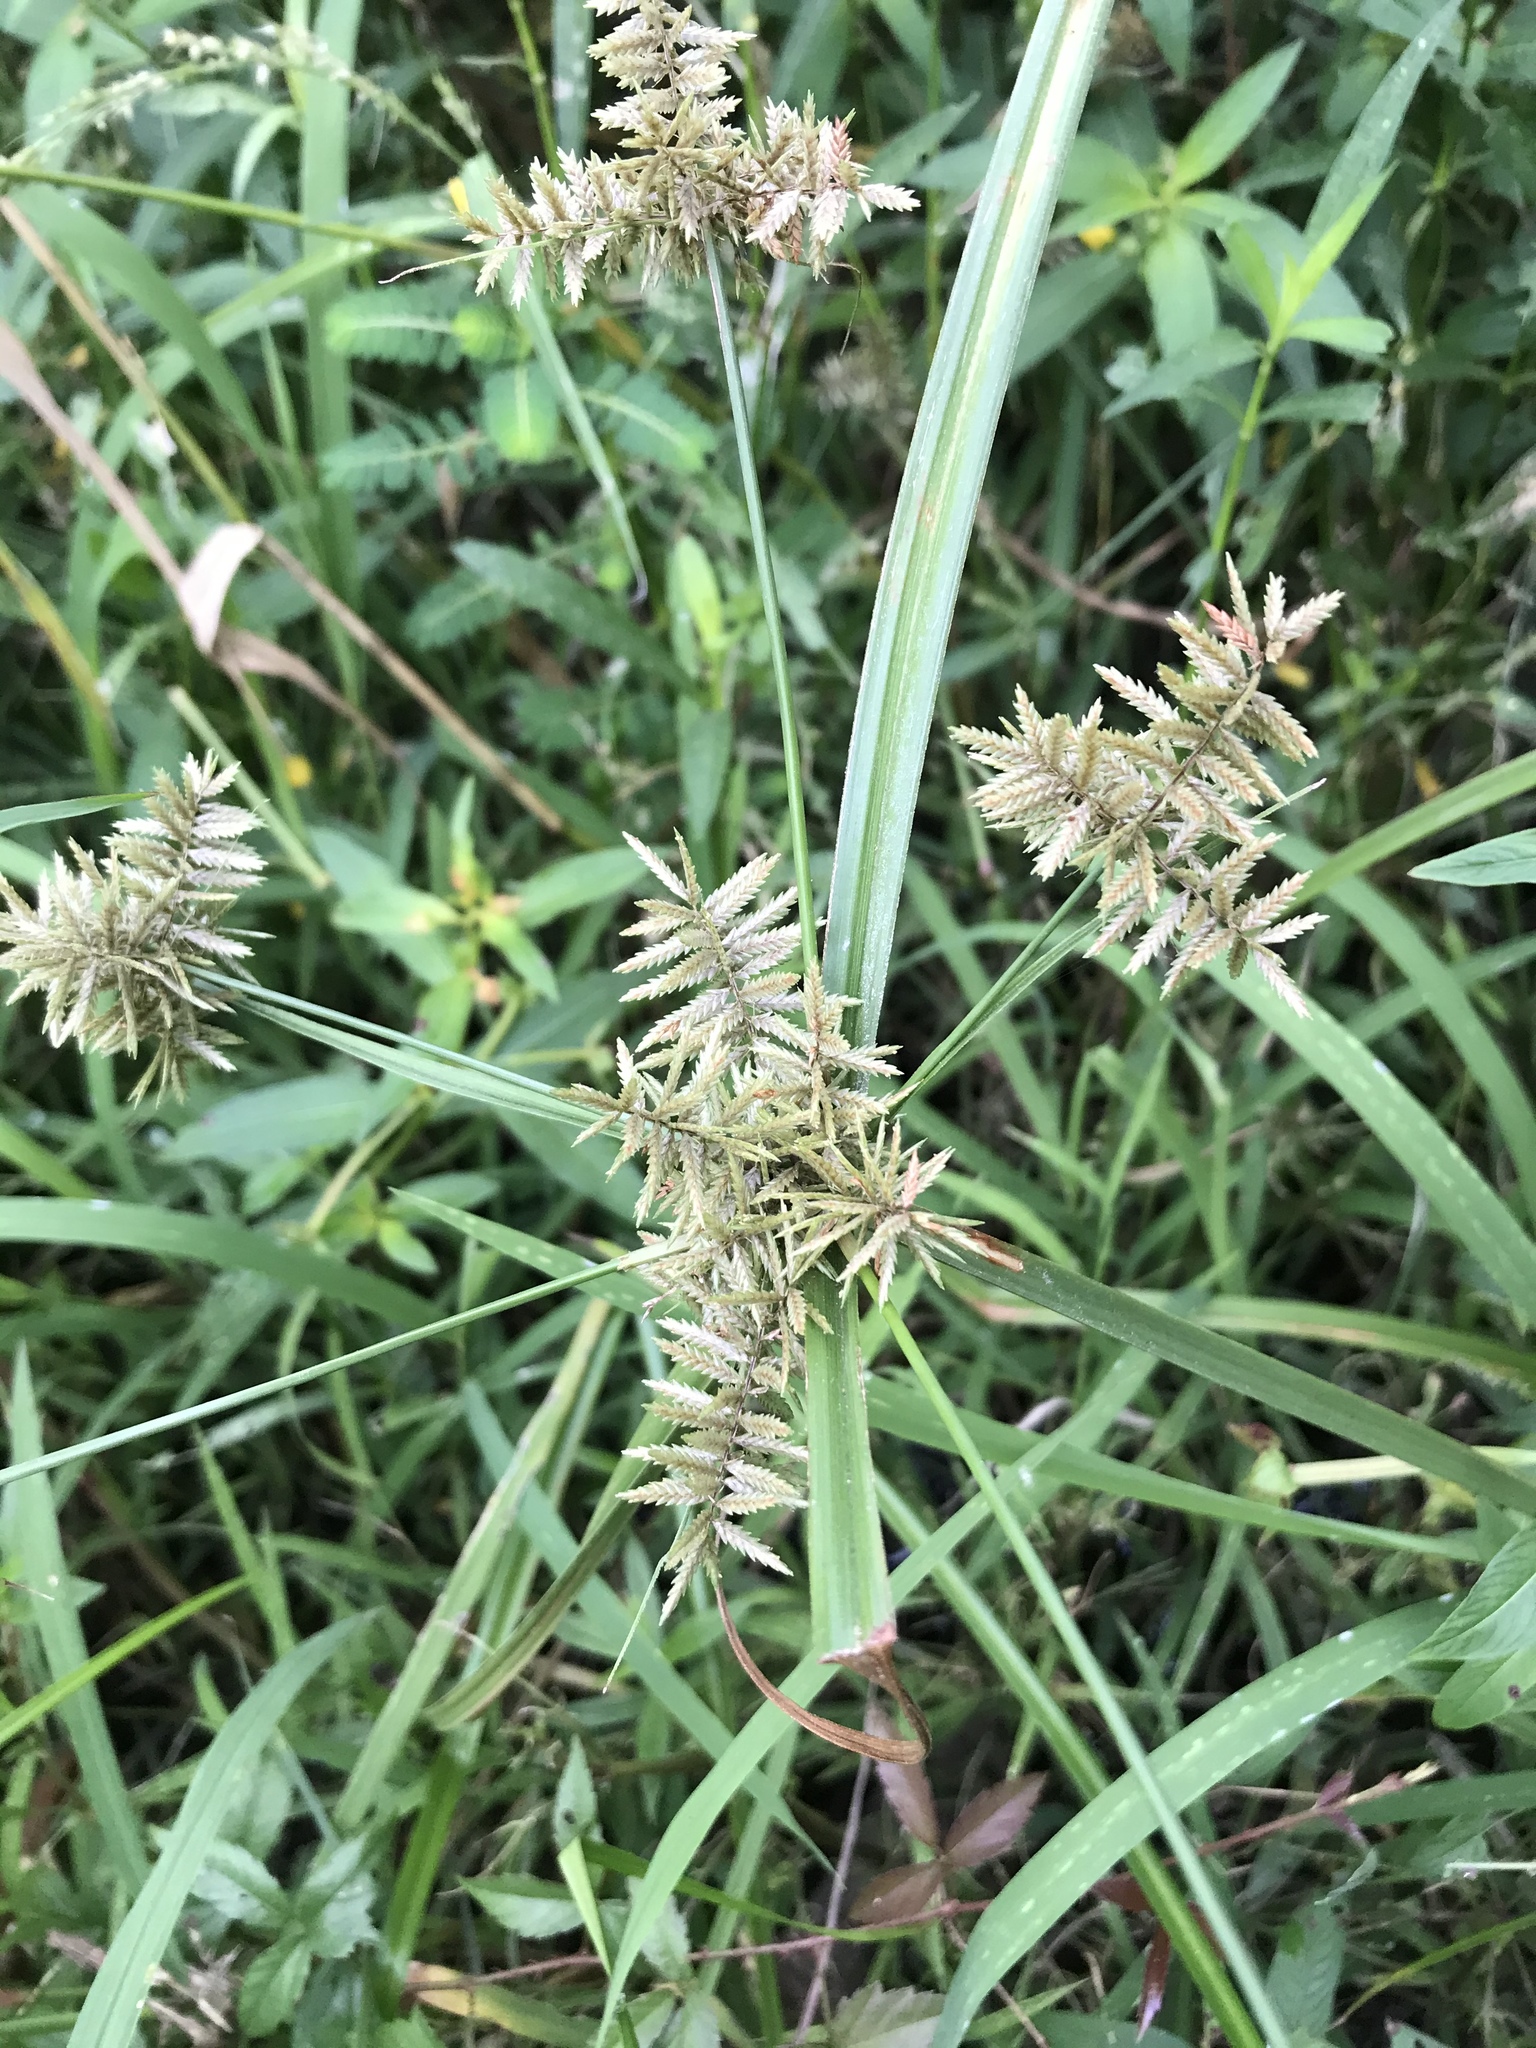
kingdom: Plantae
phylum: Tracheophyta
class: Liliopsida
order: Poales
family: Cyperaceae
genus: Cyperus
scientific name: Cyperus pilosus
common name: Fuzzy flatsedge
